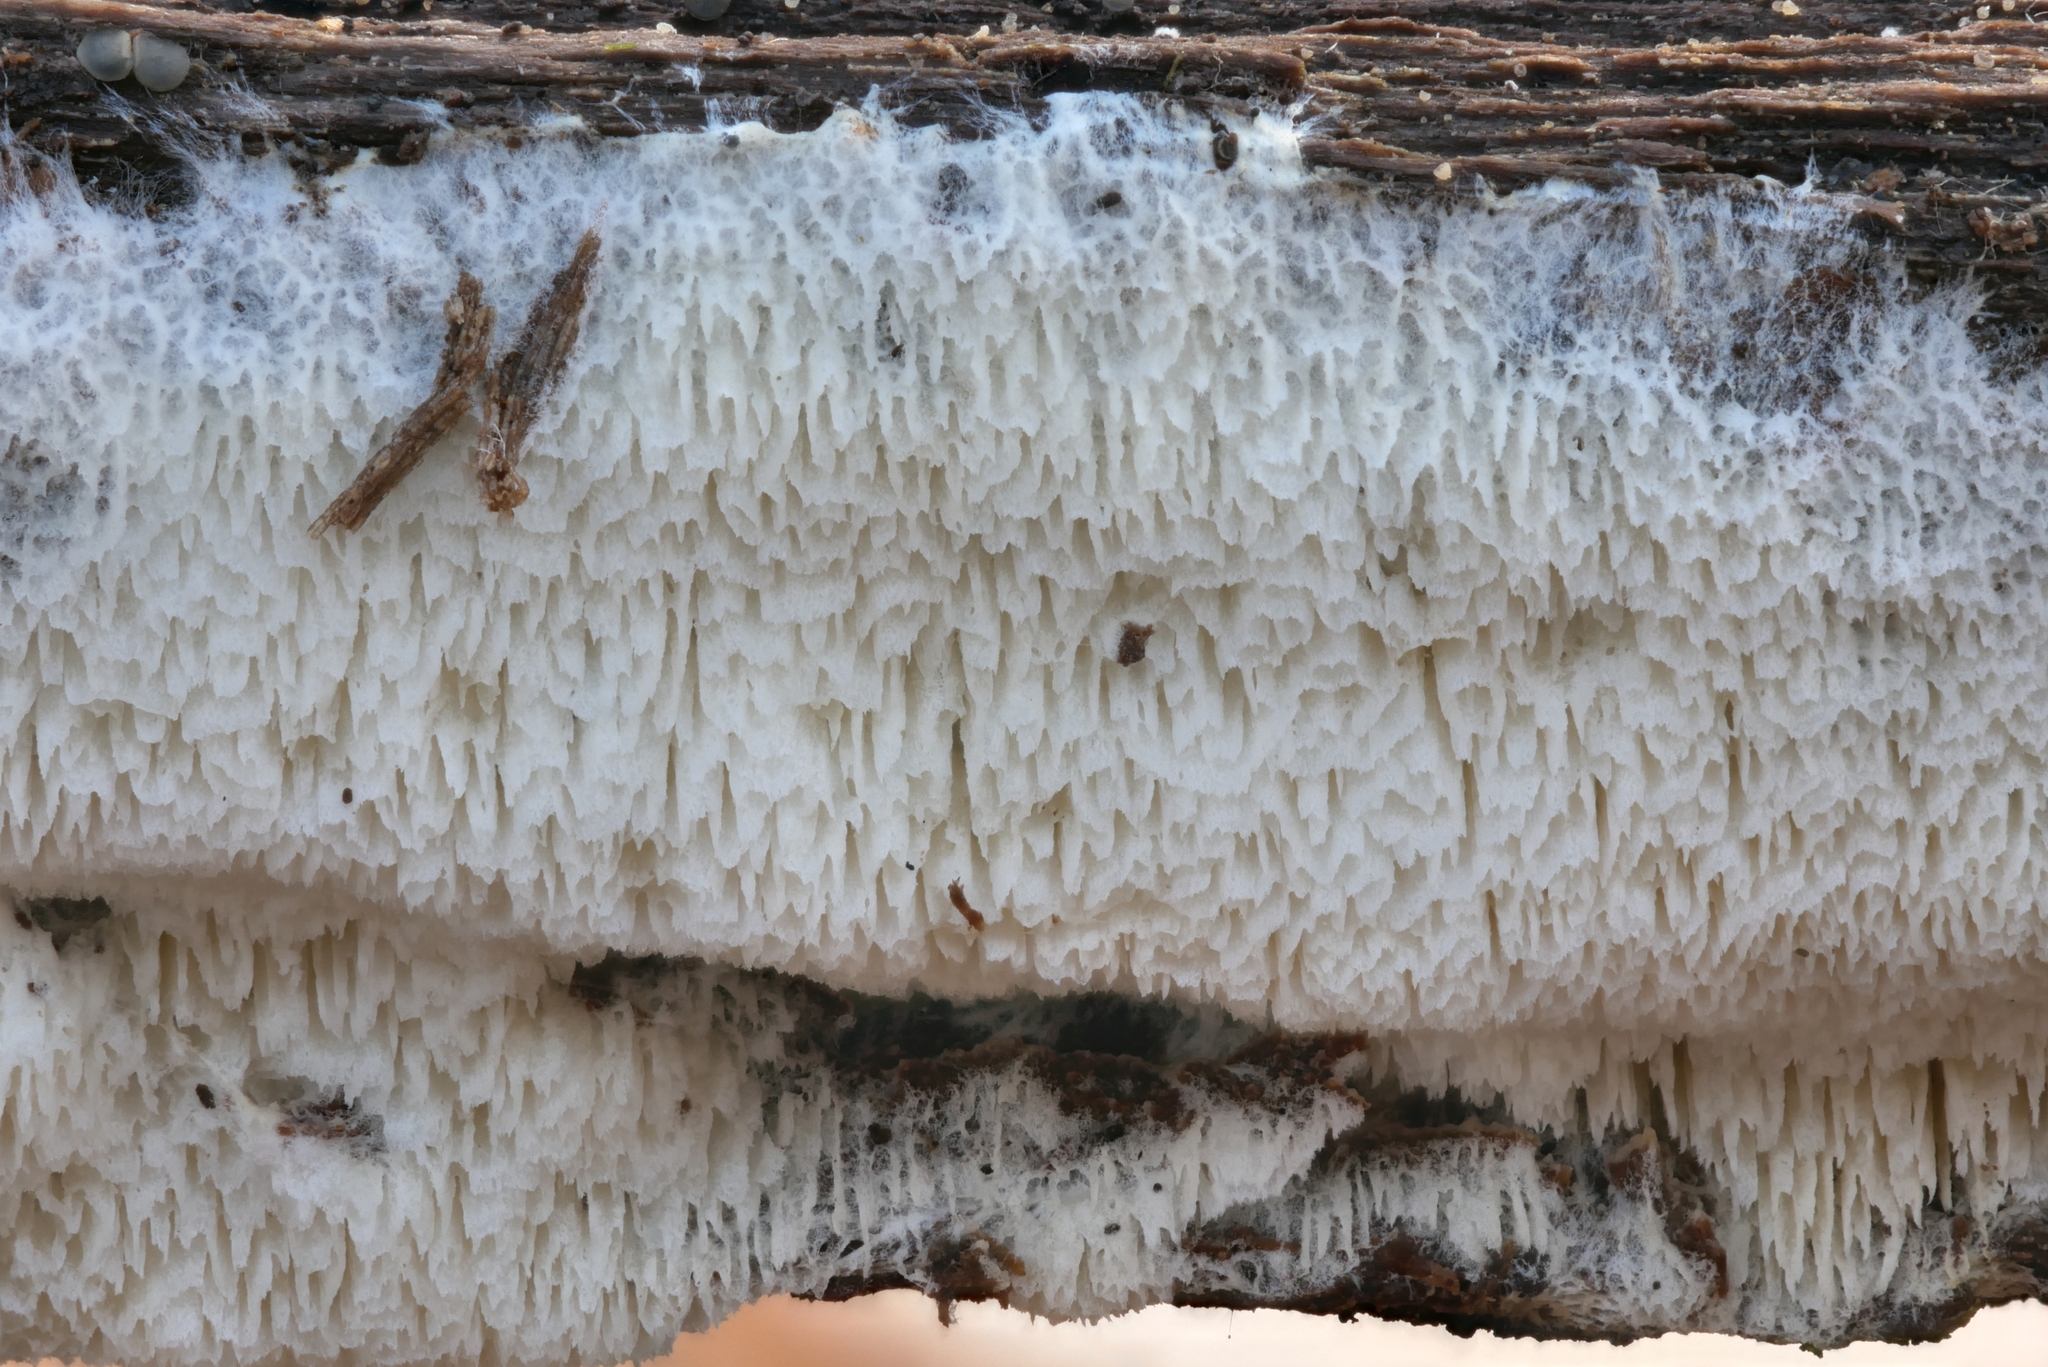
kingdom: Fungi
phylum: Basidiomycota
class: Agaricomycetes
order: Trechisporales
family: Sistotremataceae
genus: Trechispora
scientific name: Trechispora mollusca
